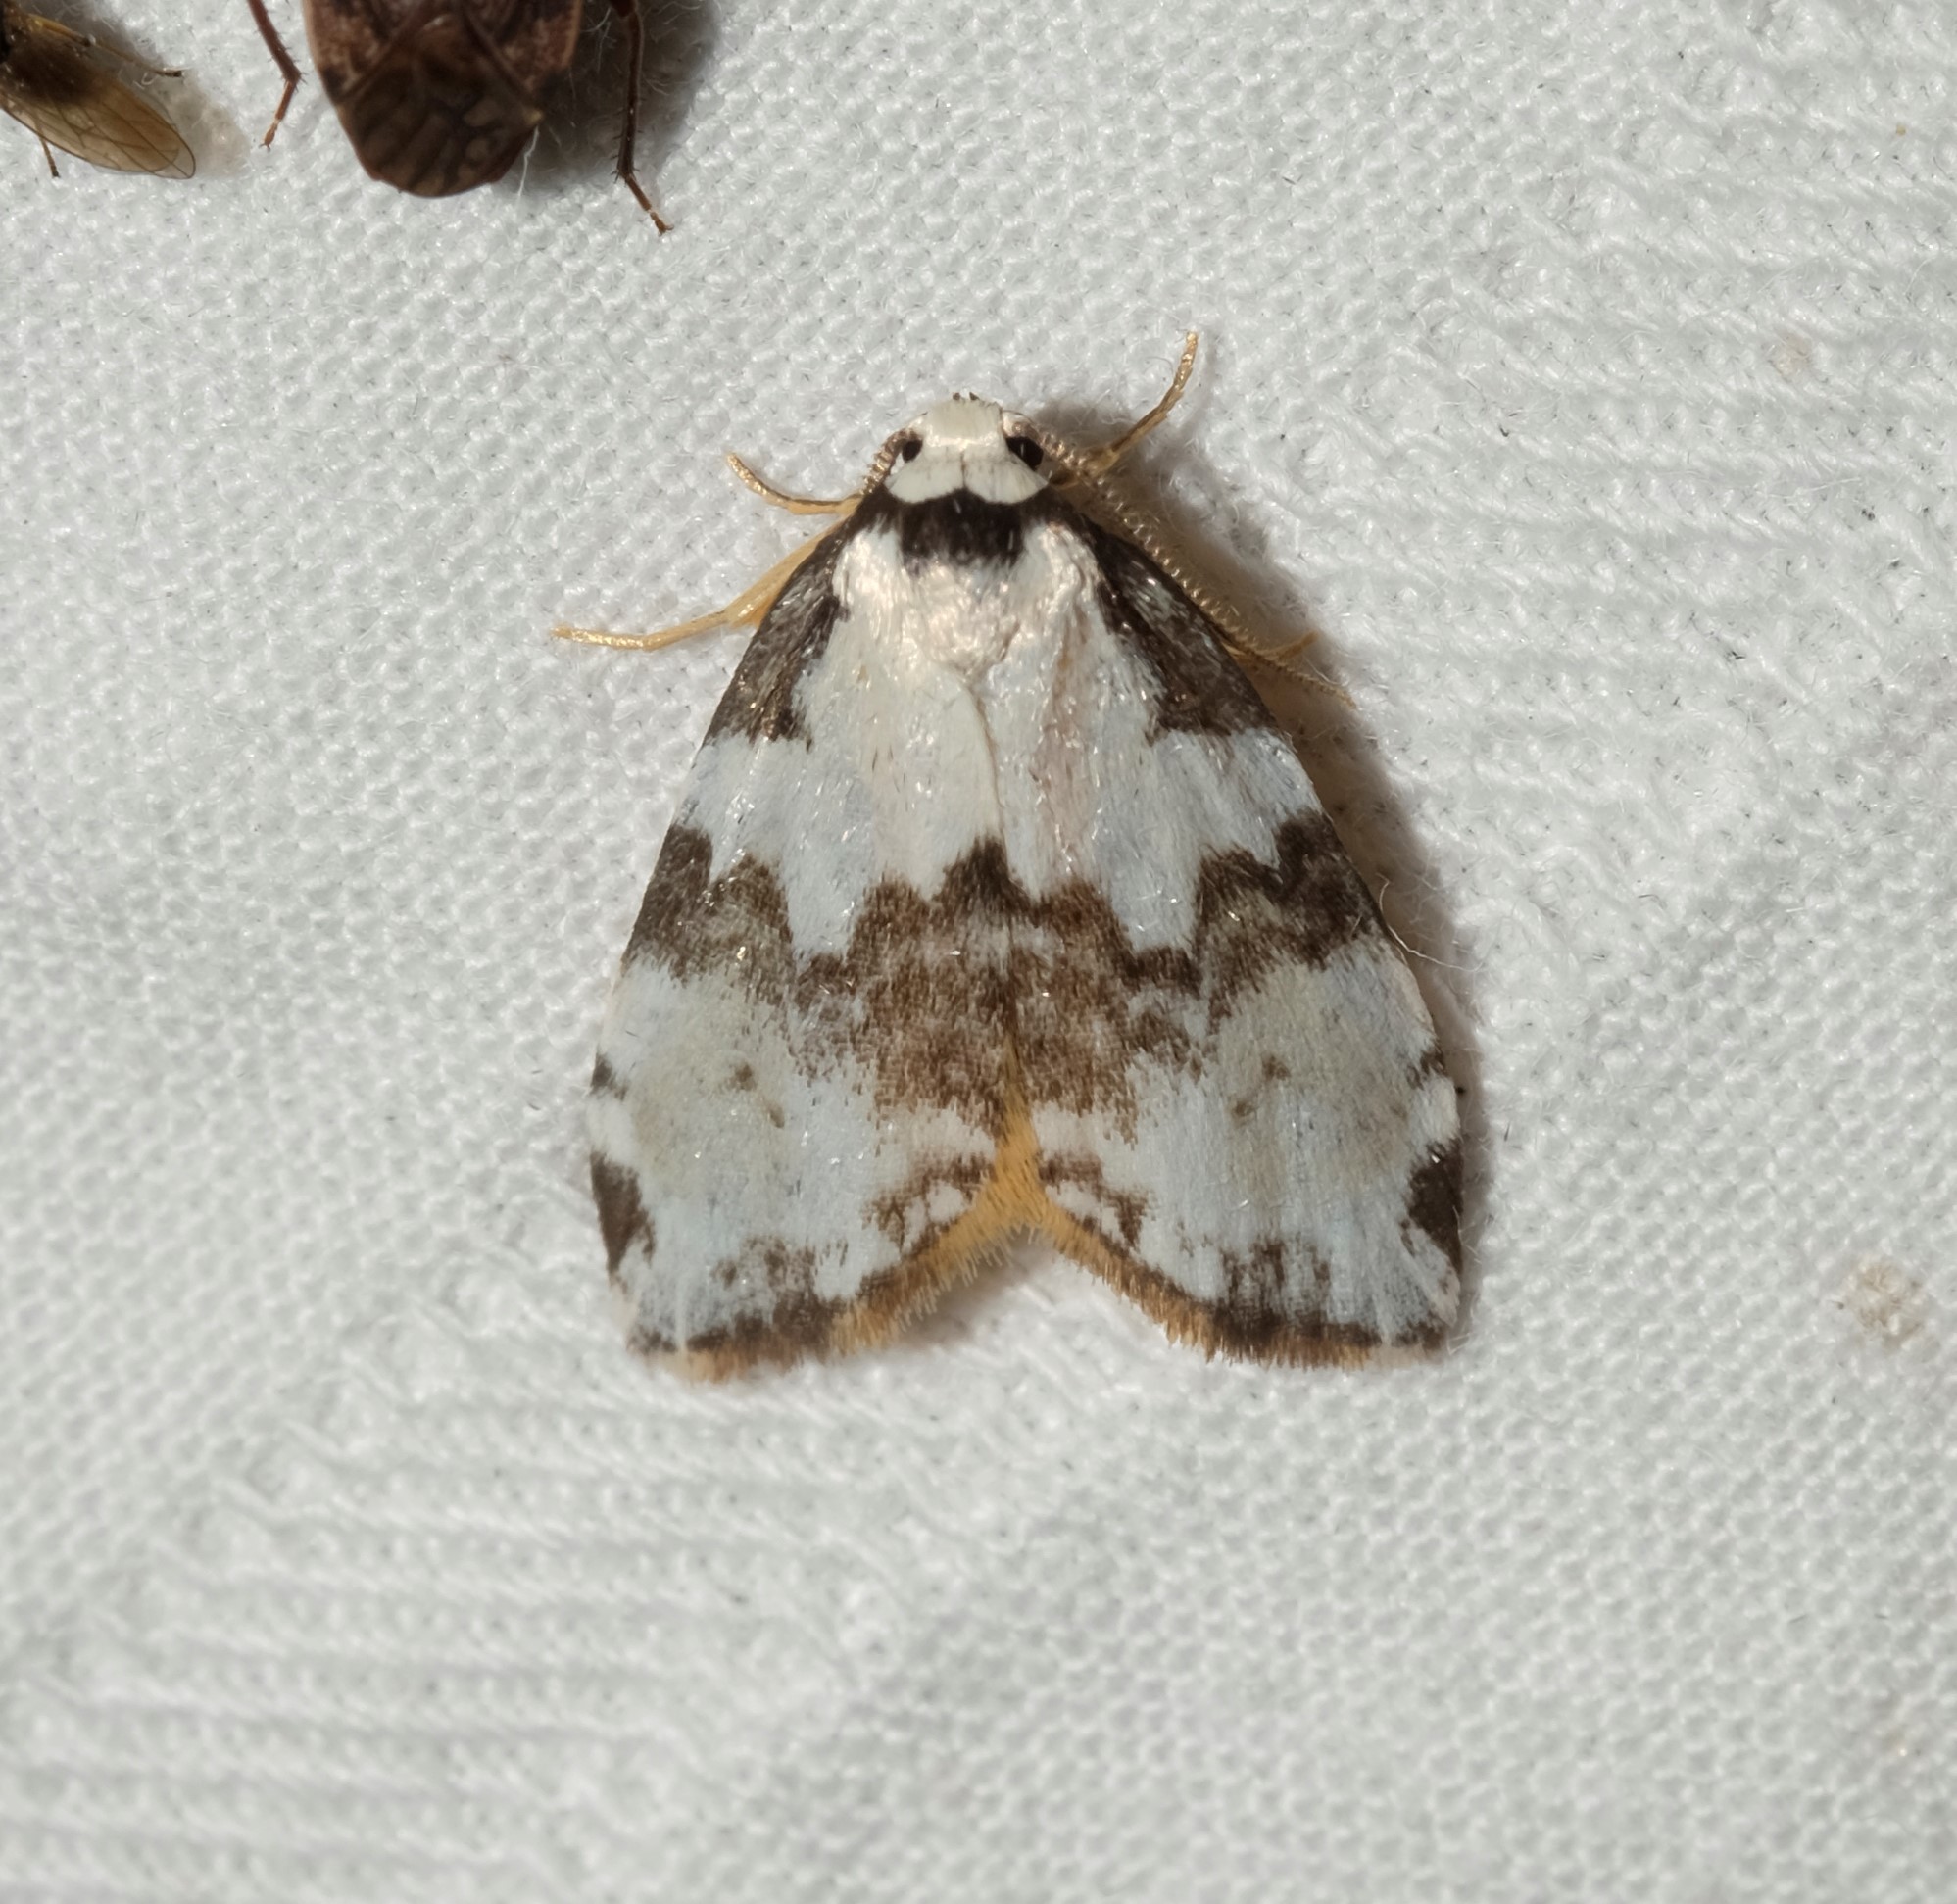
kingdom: Animalia
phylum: Arthropoda
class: Insecta
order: Lepidoptera
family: Erebidae
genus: Thallarcha
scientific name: Thallarcha epiostola
